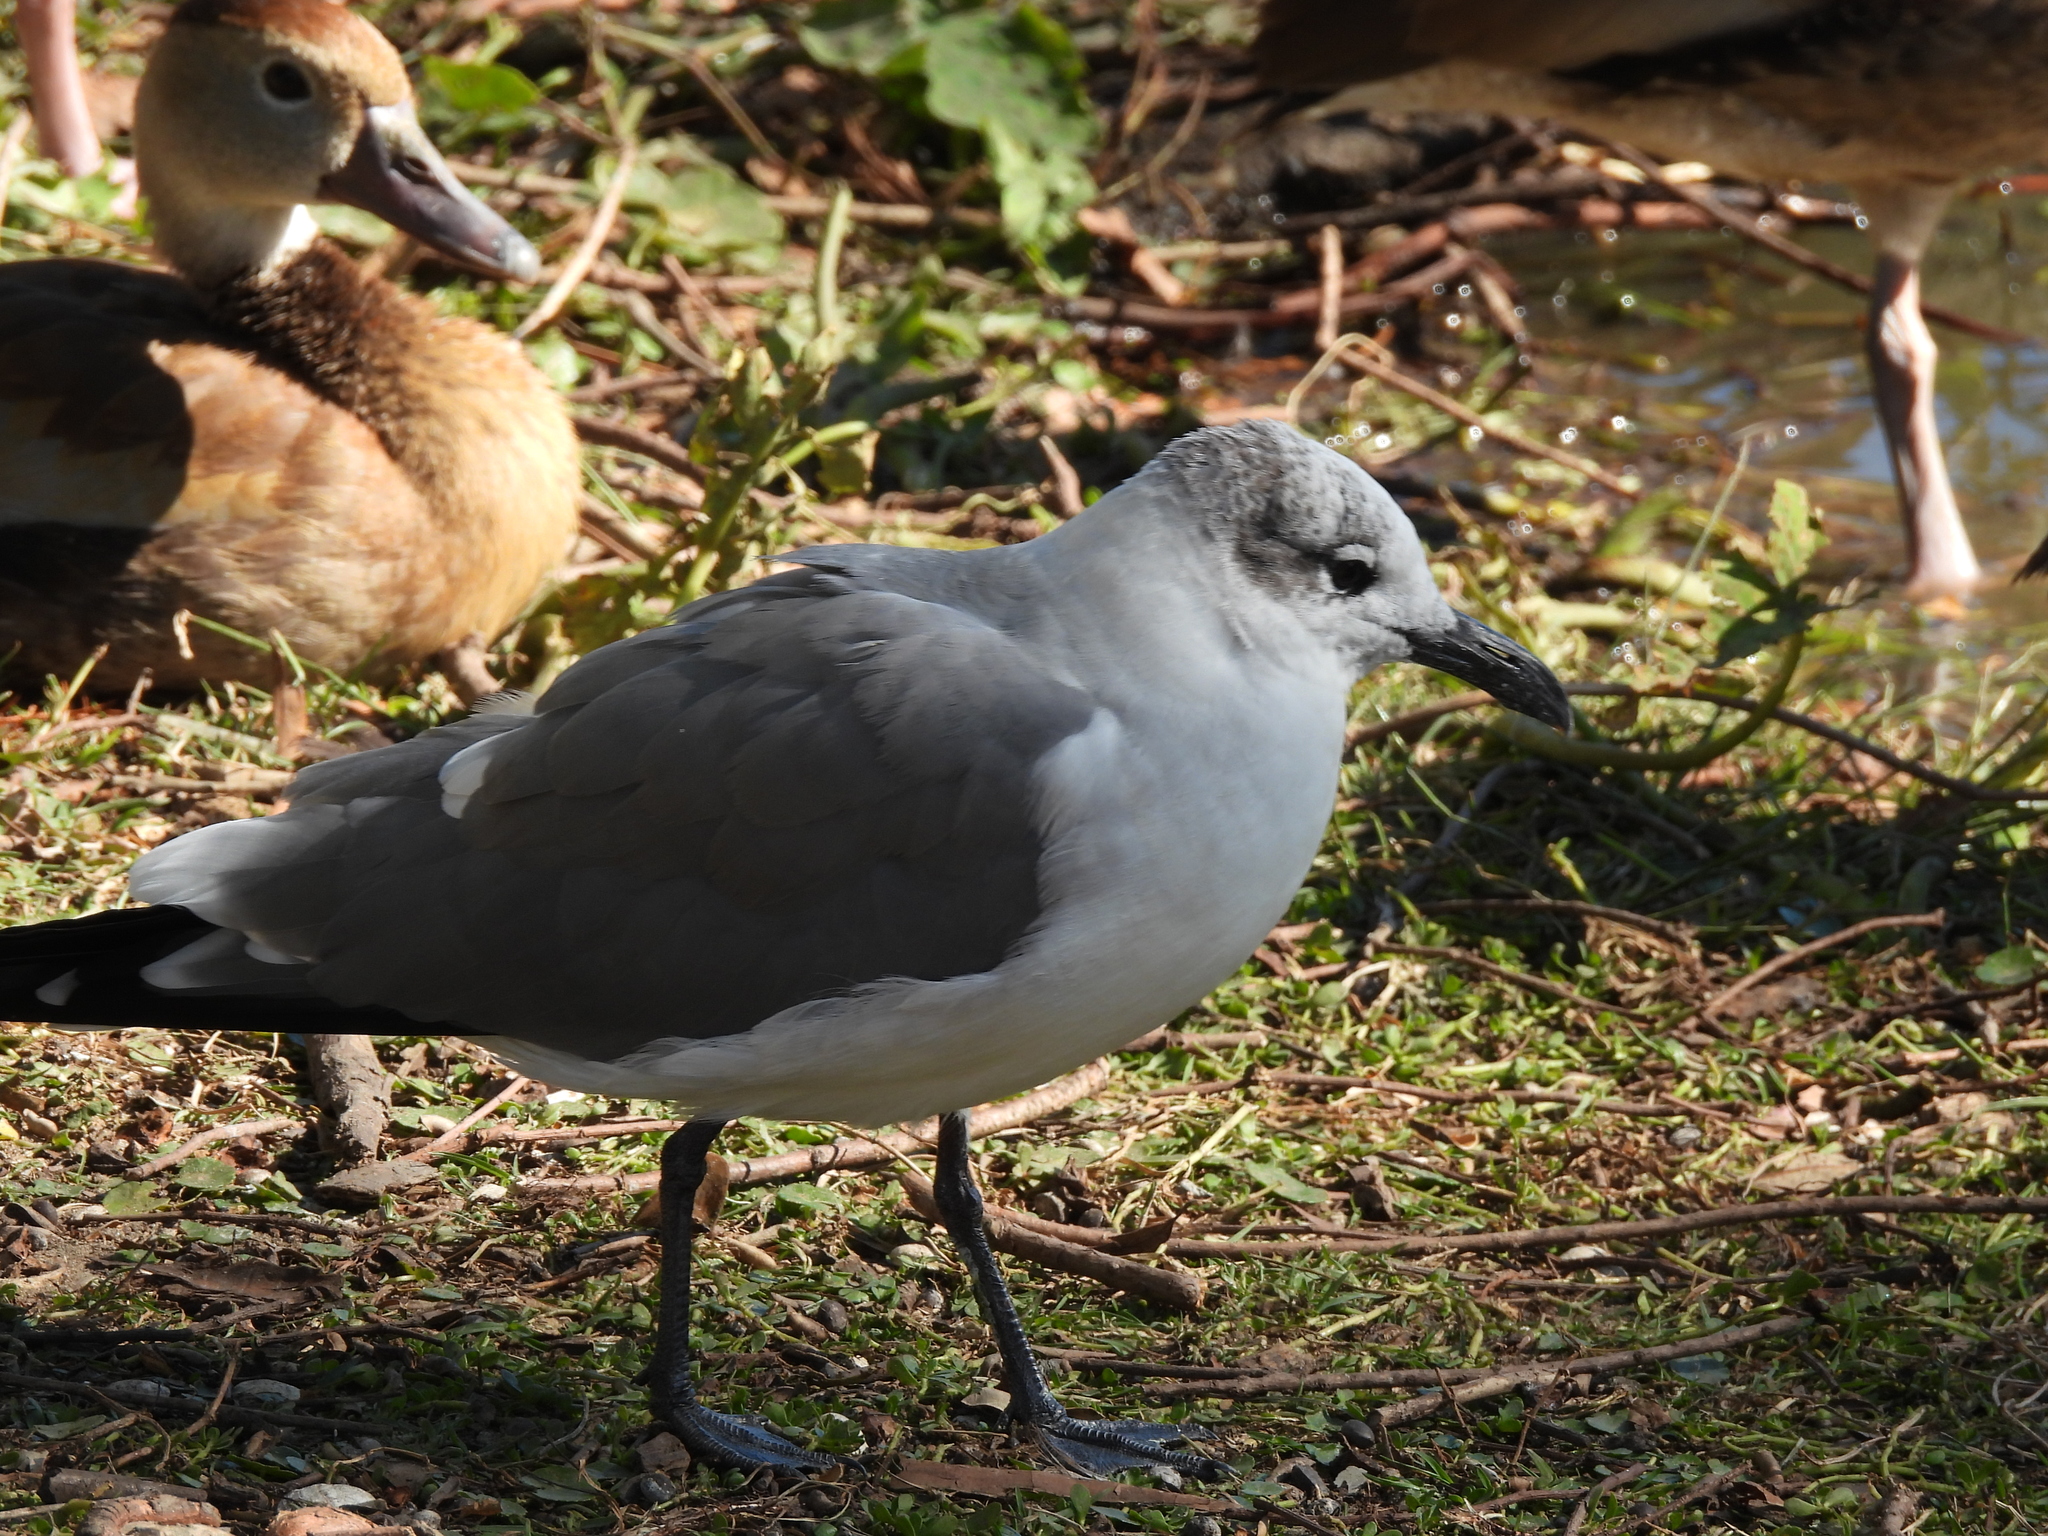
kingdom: Animalia
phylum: Chordata
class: Aves
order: Charadriiformes
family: Laridae
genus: Leucophaeus
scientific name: Leucophaeus atricilla
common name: Laughing gull
